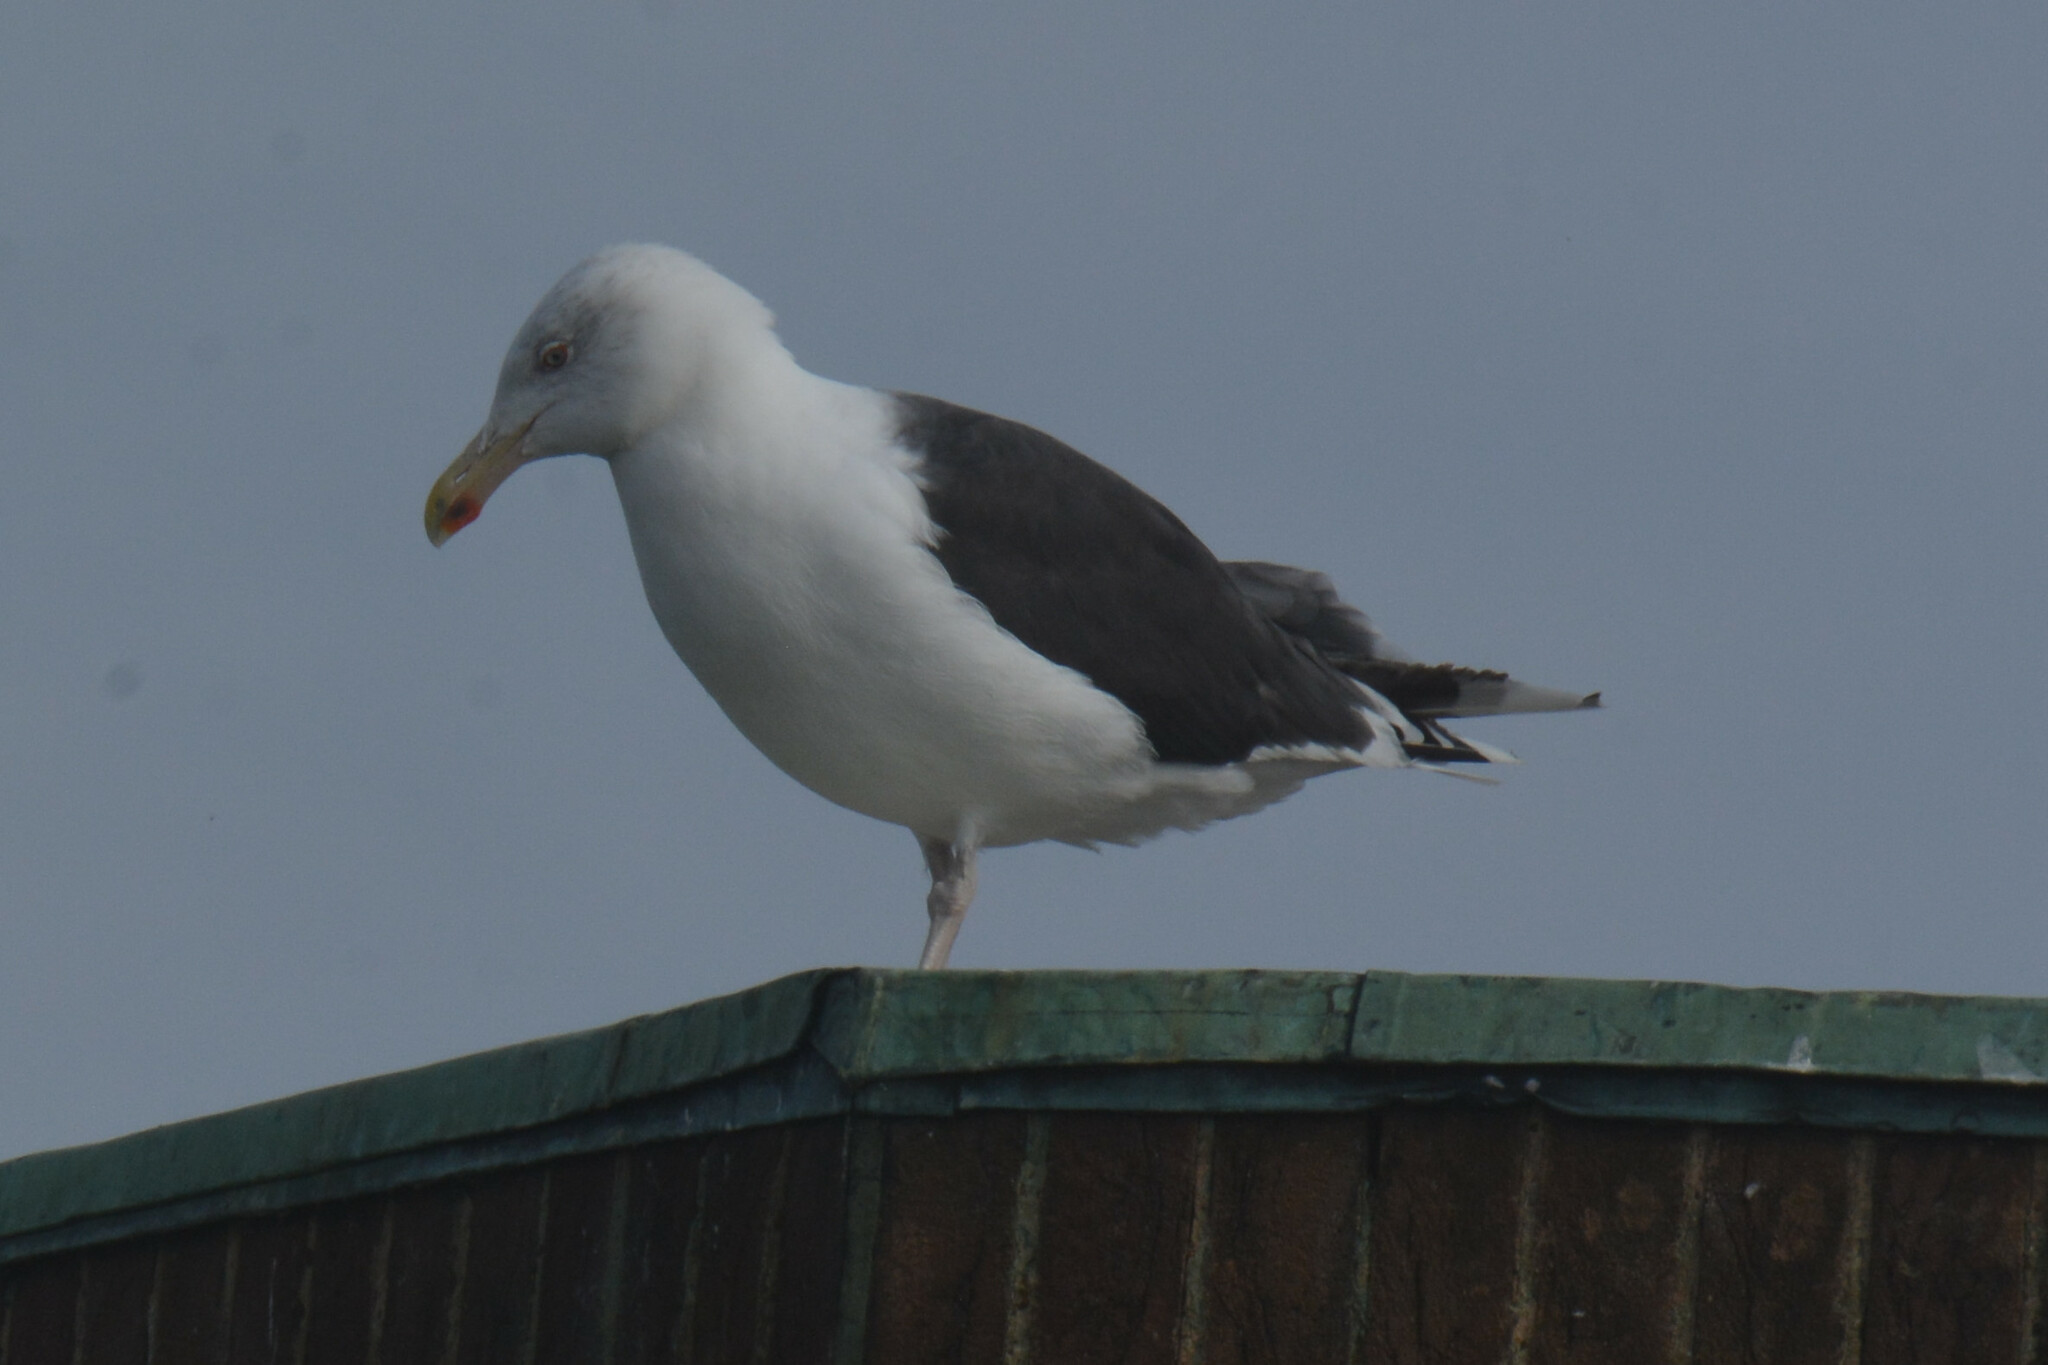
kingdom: Animalia
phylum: Chordata
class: Aves
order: Charadriiformes
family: Laridae
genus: Larus
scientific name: Larus marinus
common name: Great black-backed gull
